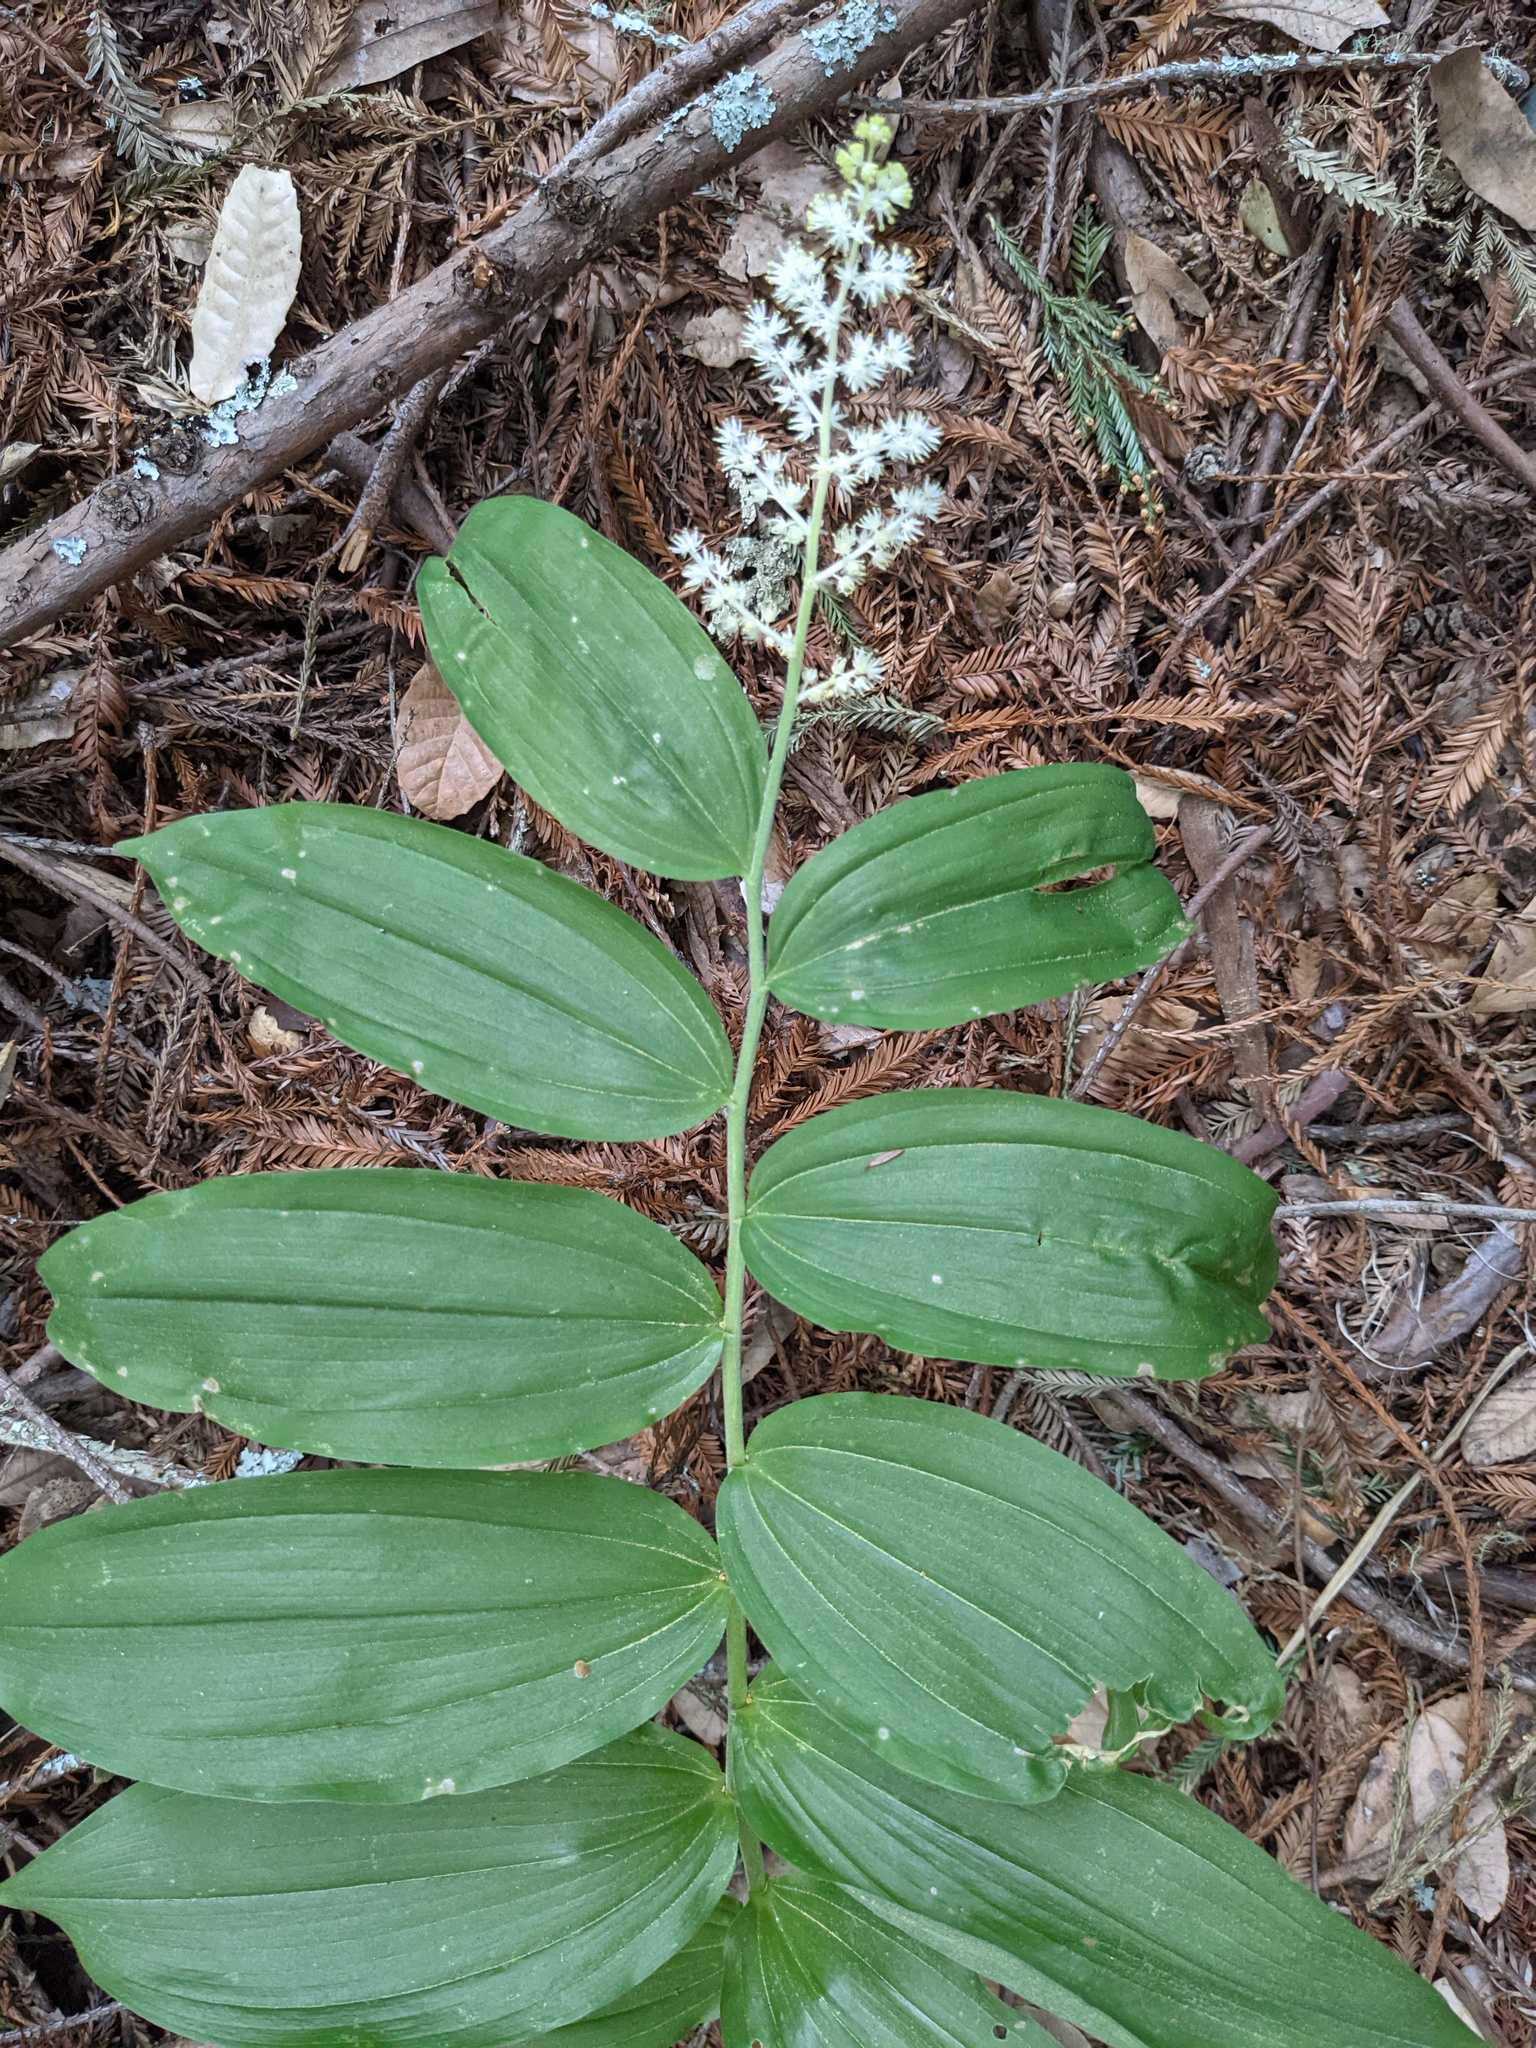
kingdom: Plantae
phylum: Tracheophyta
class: Liliopsida
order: Asparagales
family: Asparagaceae
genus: Maianthemum
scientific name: Maianthemum racemosum
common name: False spikenard
